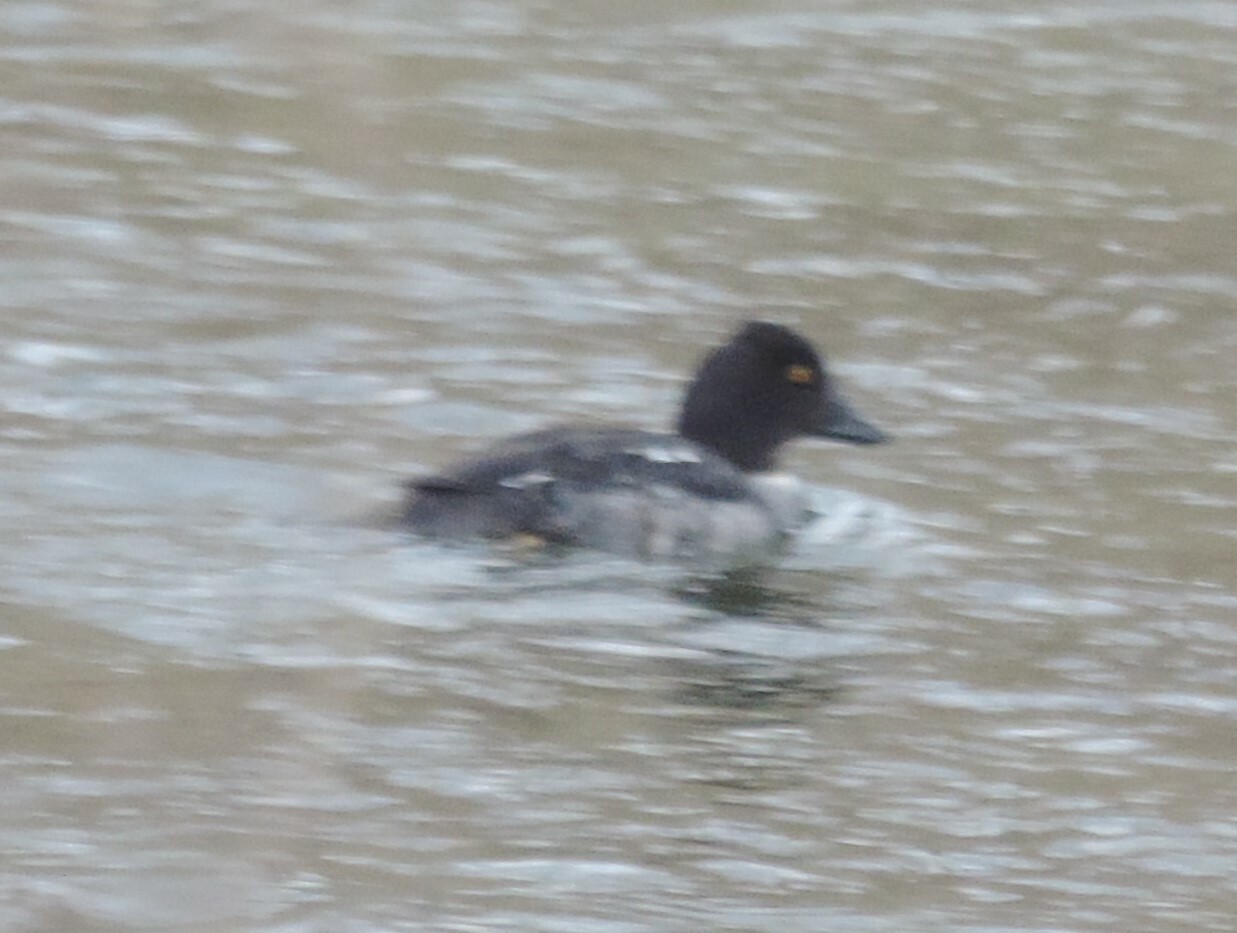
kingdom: Animalia
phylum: Chordata
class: Aves
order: Anseriformes
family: Anatidae
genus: Bucephala
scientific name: Bucephala clangula
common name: Common goldeneye
